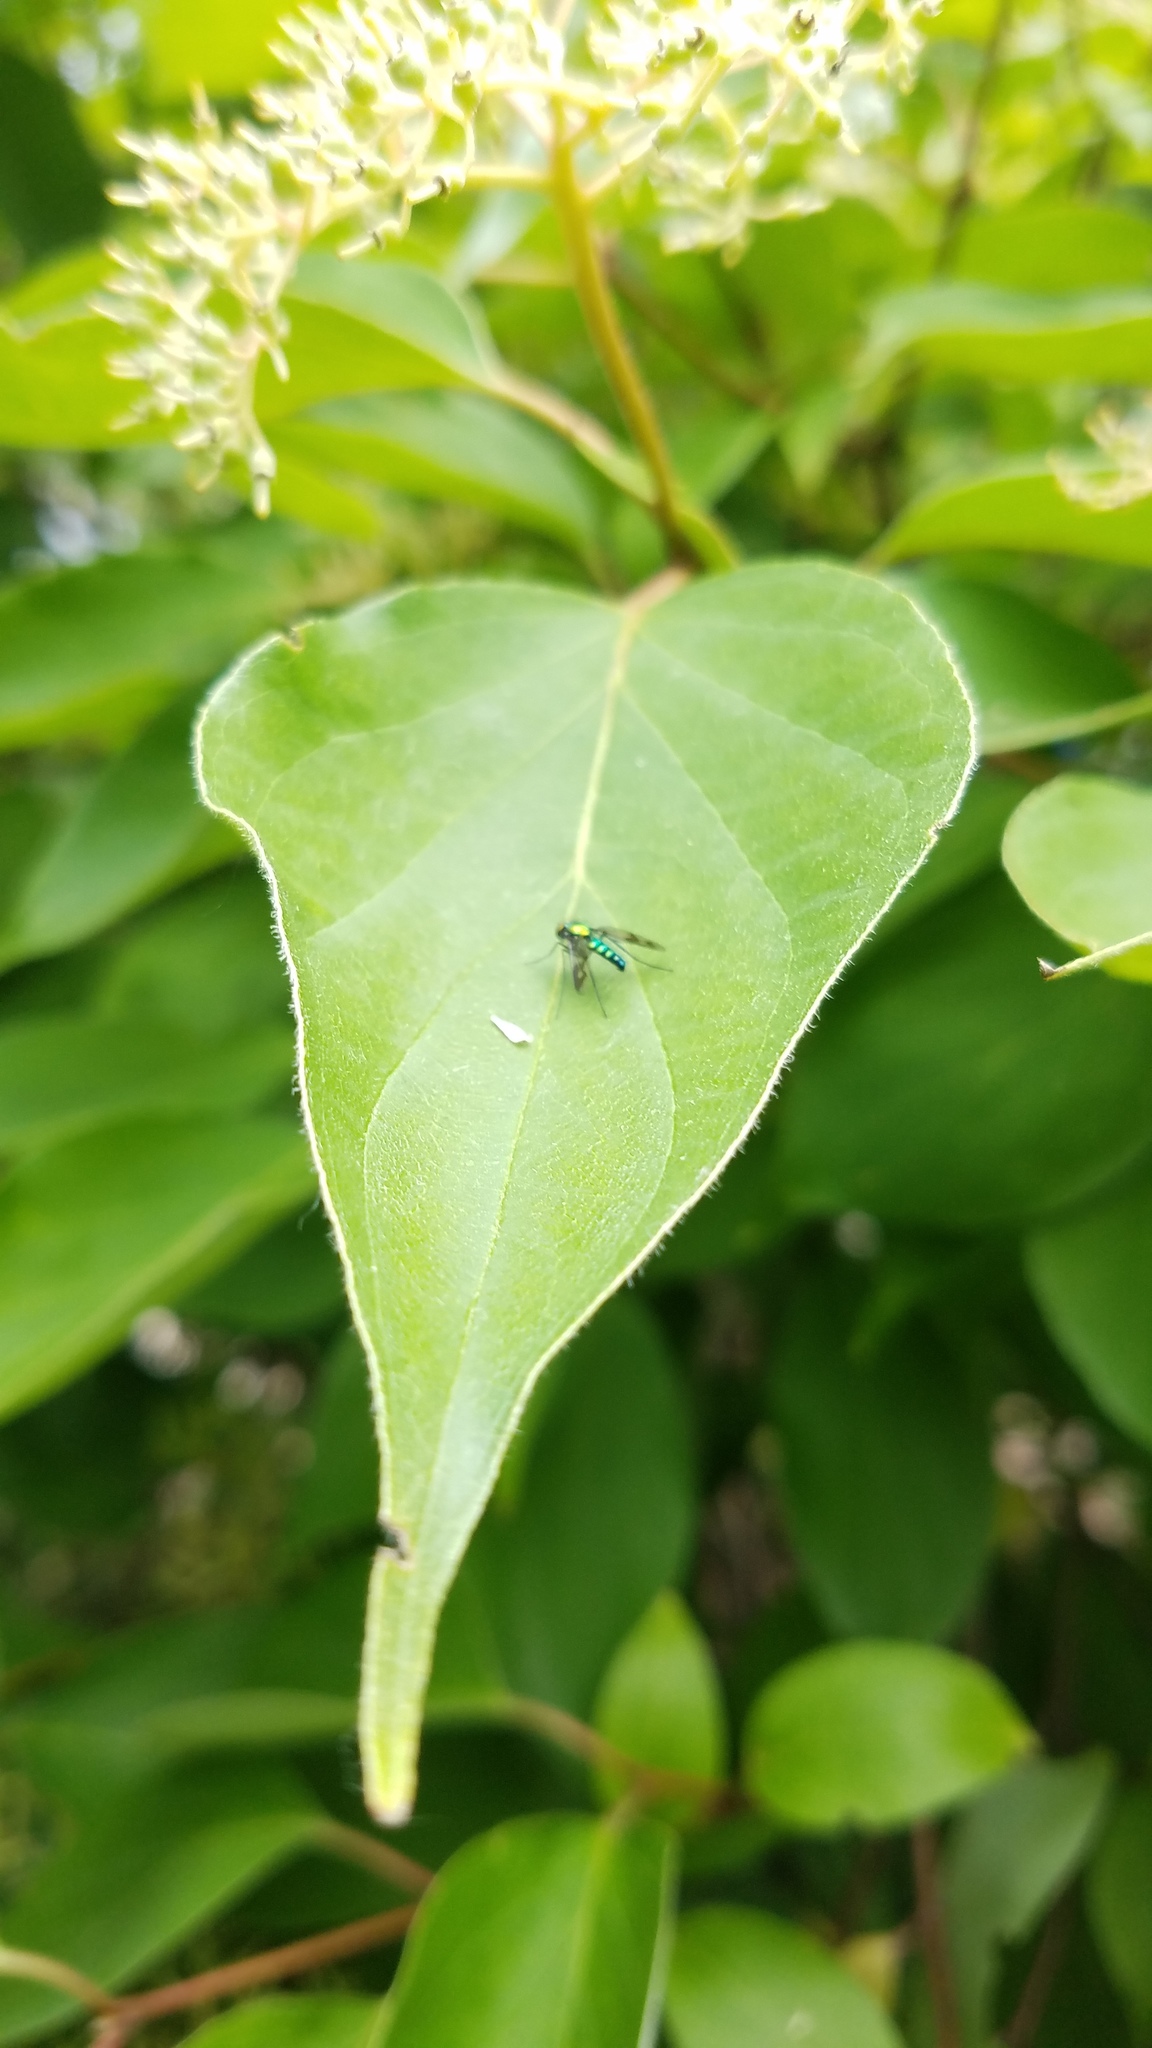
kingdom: Animalia
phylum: Arthropoda
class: Insecta
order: Diptera
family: Dolichopodidae
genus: Condylostylus
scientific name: Condylostylus patibulatus
